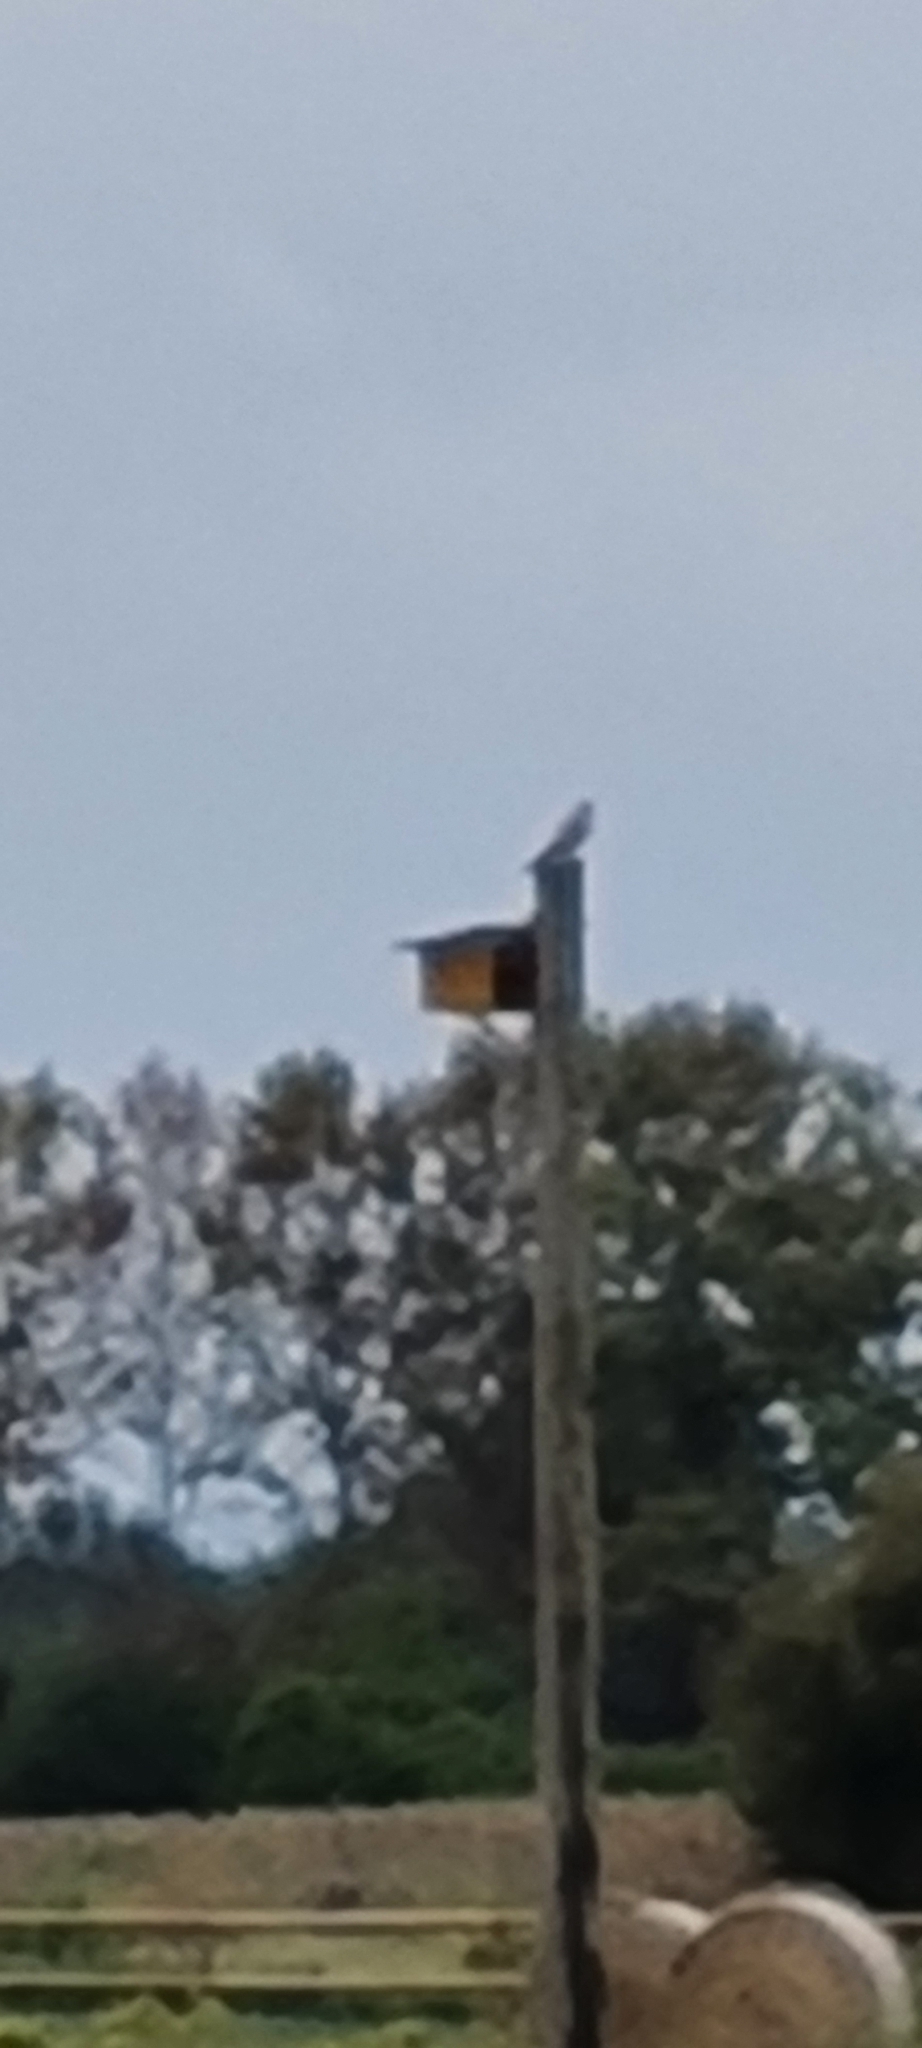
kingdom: Animalia
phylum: Chordata
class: Aves
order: Falconiformes
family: Falconidae
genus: Falco
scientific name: Falco tinnunculus
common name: Common kestrel
